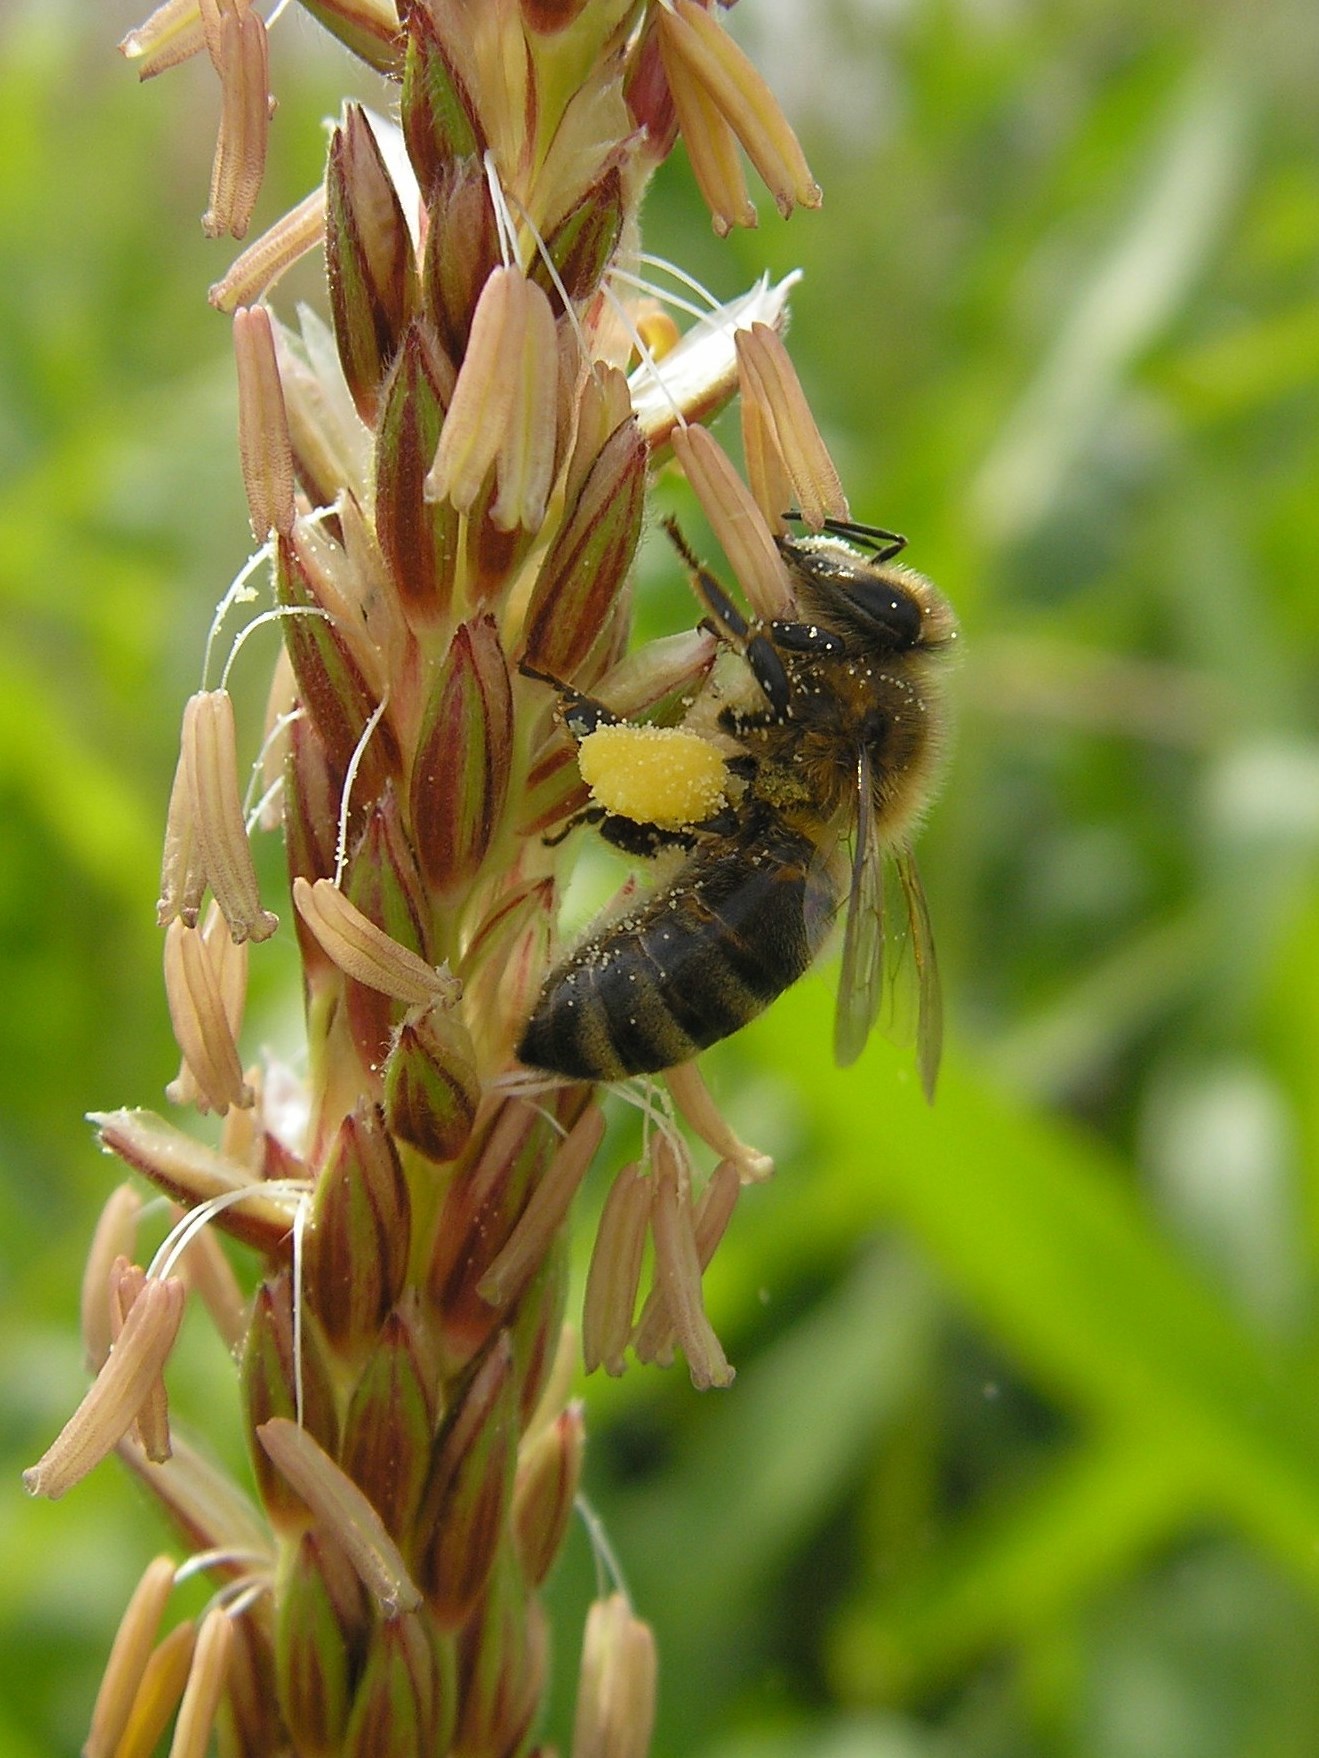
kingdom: Animalia
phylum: Arthropoda
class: Insecta
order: Hymenoptera
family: Apidae
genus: Apis
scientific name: Apis mellifera
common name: Honey bee
